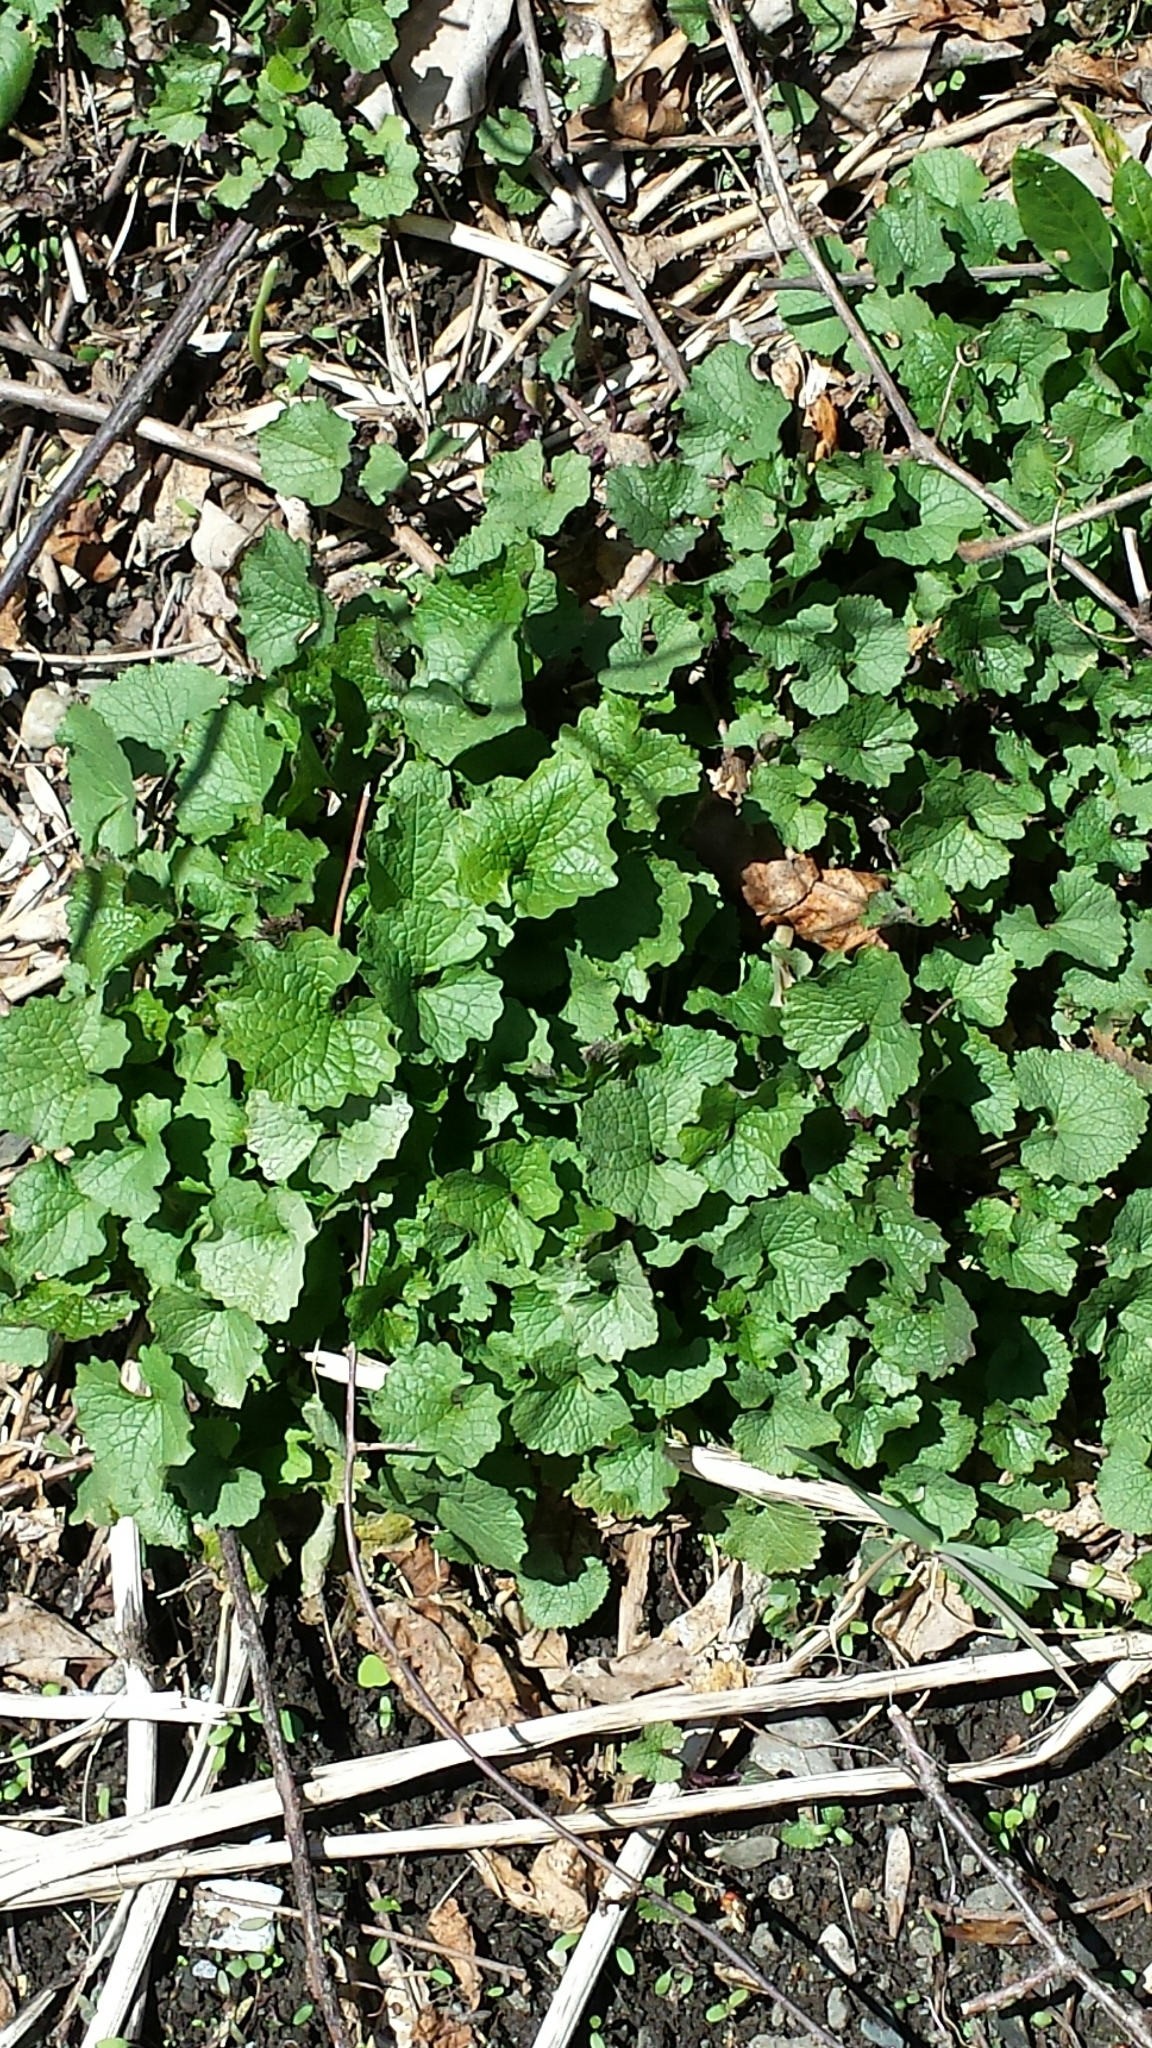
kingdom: Plantae
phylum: Tracheophyta
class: Magnoliopsida
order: Brassicales
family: Brassicaceae
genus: Alliaria
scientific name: Alliaria petiolata
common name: Garlic mustard
